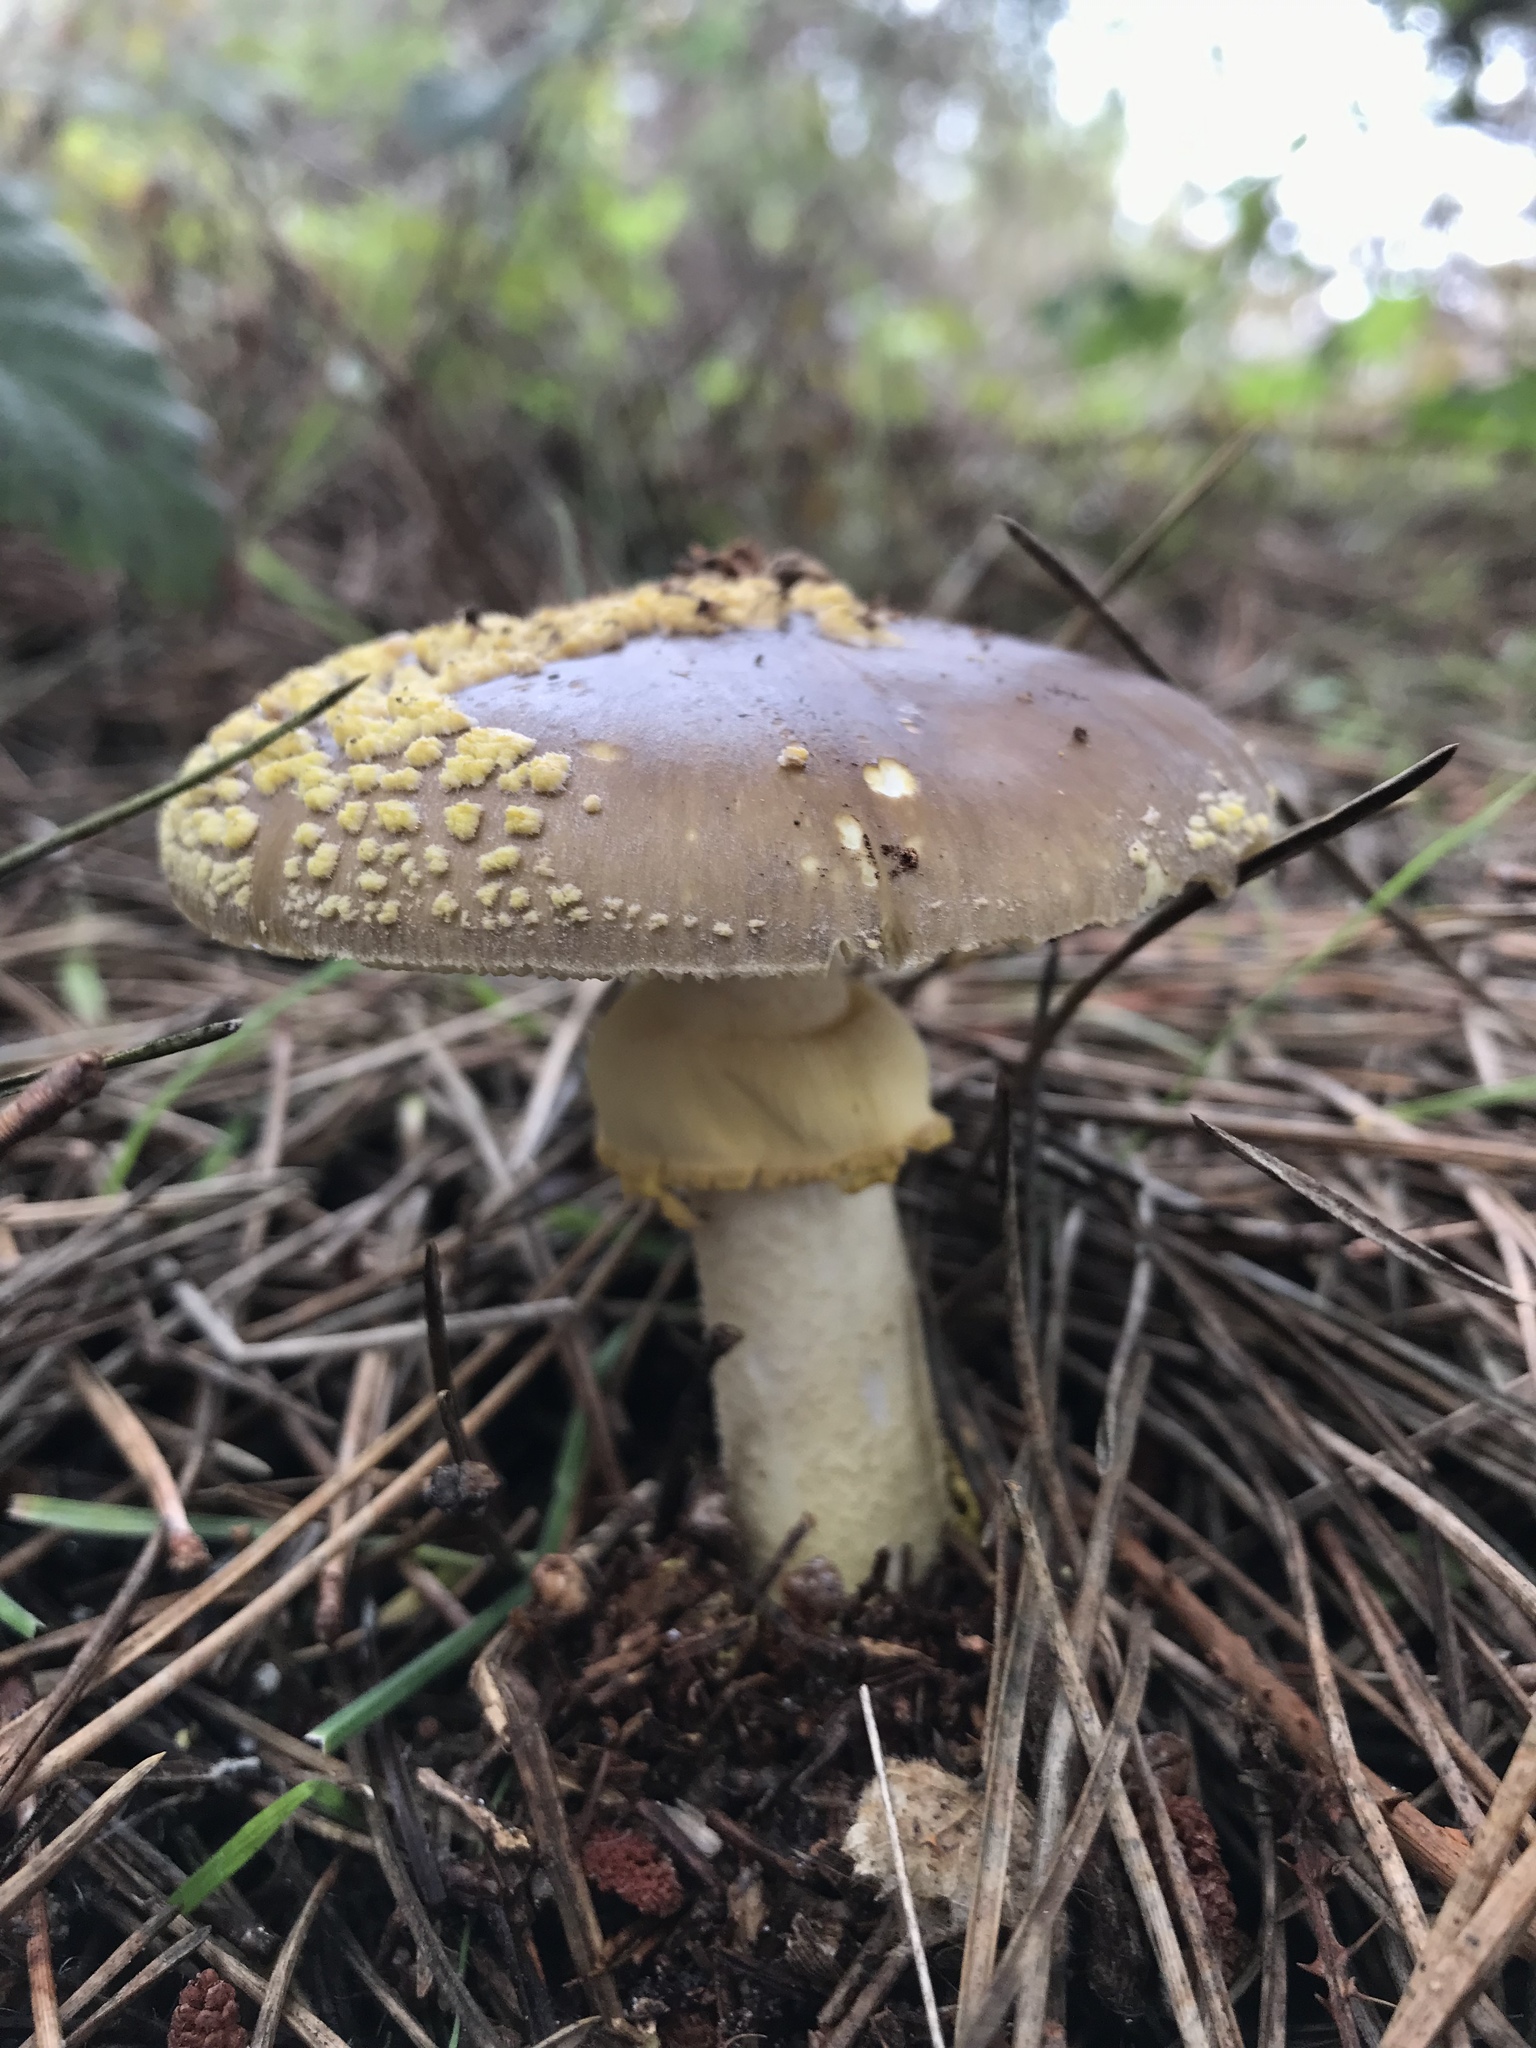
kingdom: Fungi
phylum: Basidiomycota
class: Agaricomycetes
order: Agaricales
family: Amanitaceae
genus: Amanita
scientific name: Amanita augusta
